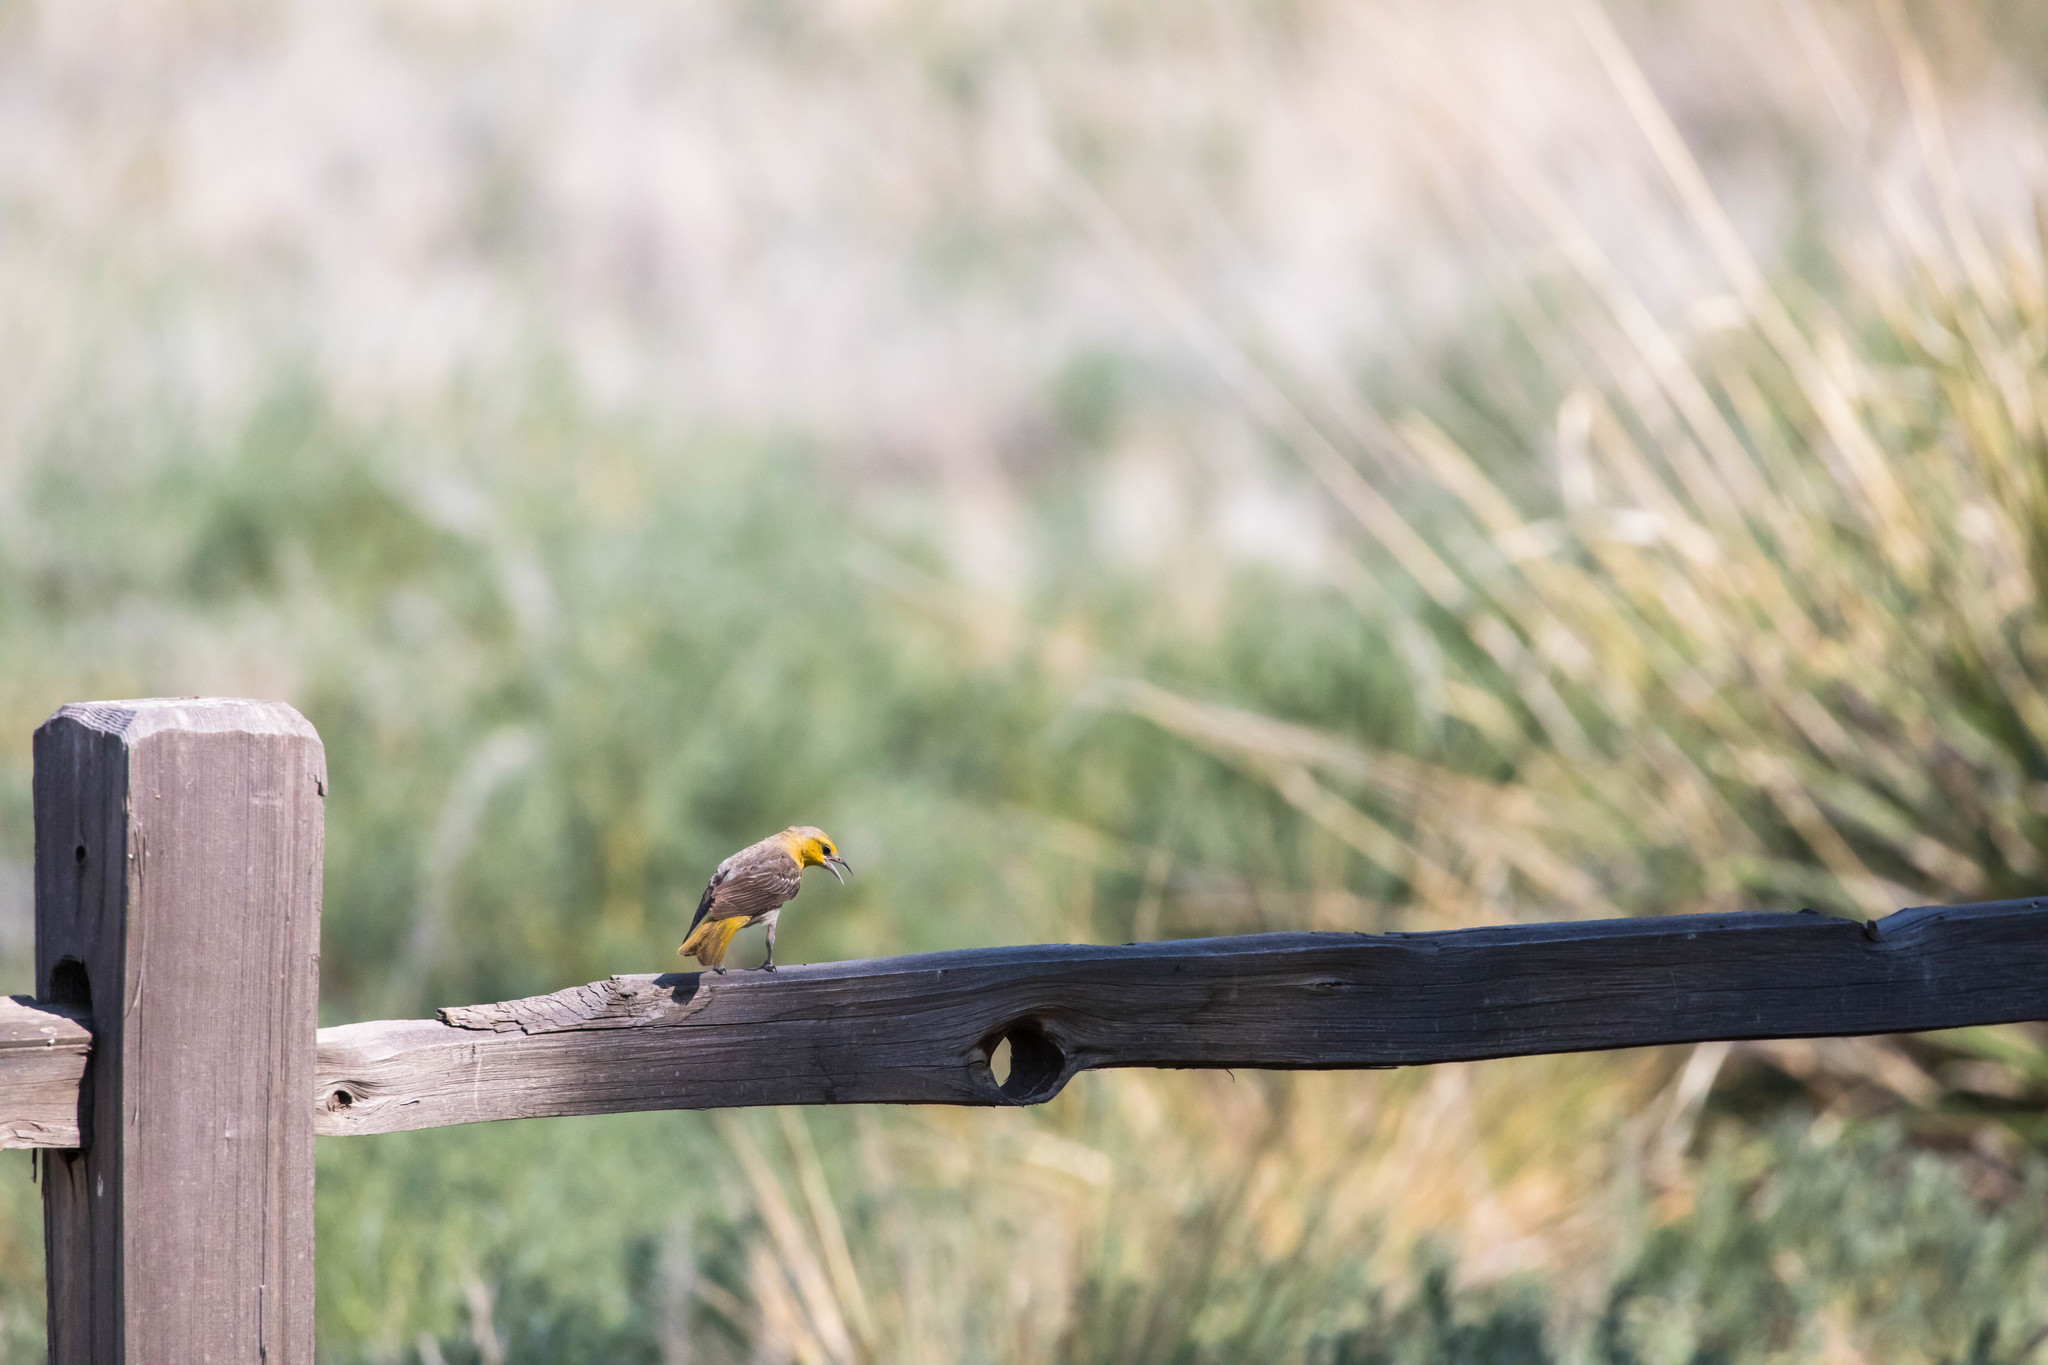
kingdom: Animalia
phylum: Chordata
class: Aves
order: Passeriformes
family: Icteridae
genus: Icterus
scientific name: Icterus bullockii
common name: Bullock's oriole
